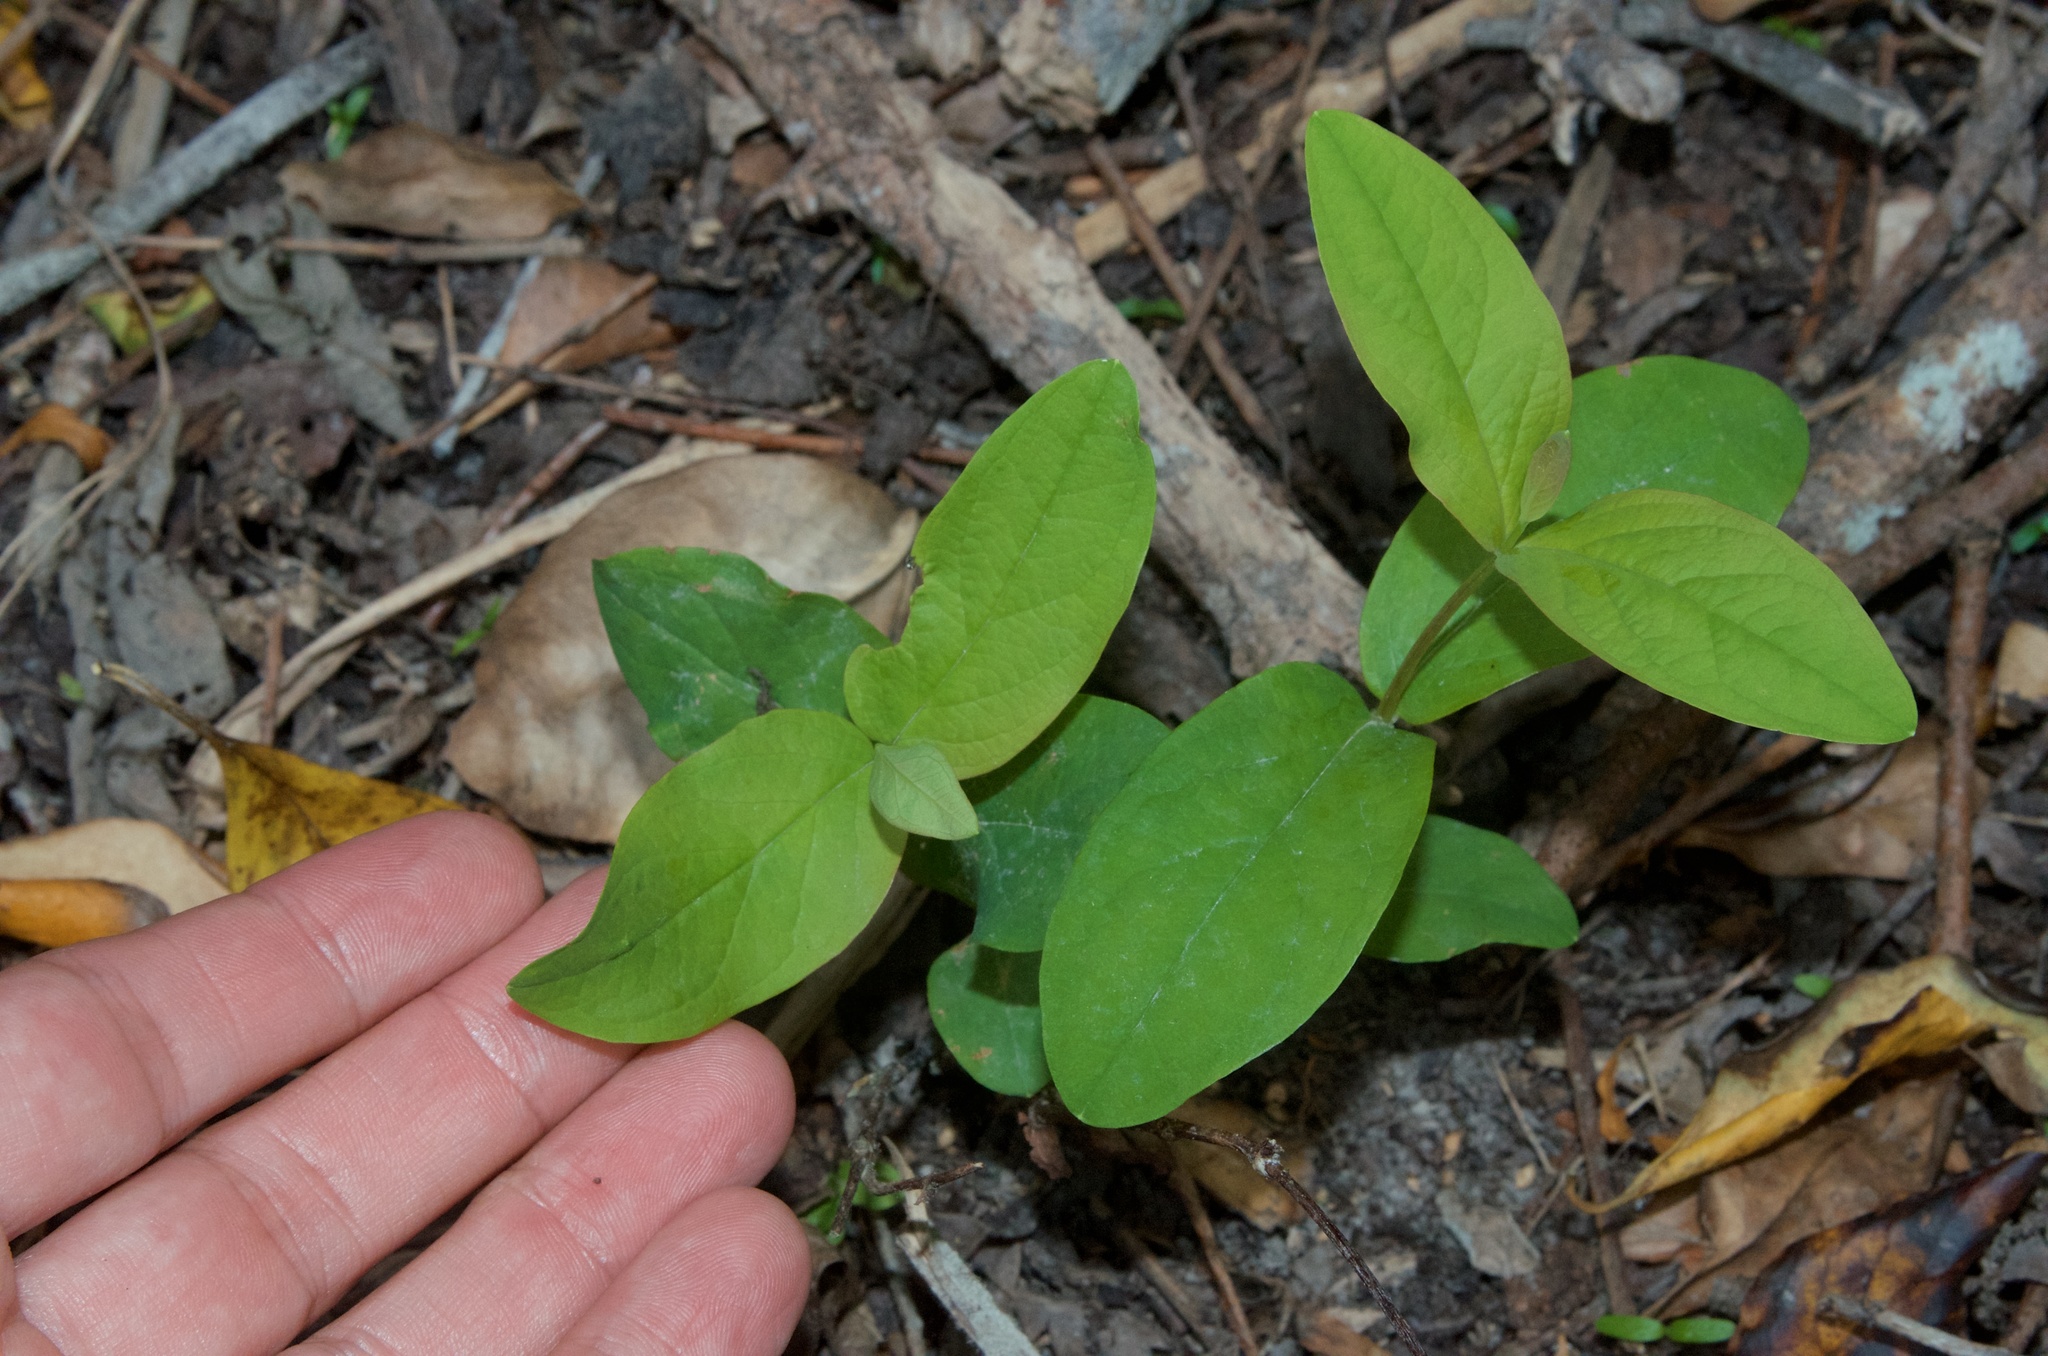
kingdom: Plantae
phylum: Tracheophyta
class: Magnoliopsida
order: Malpighiales
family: Salicaceae
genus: Salix
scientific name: Salix cinerea
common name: Common sallow
